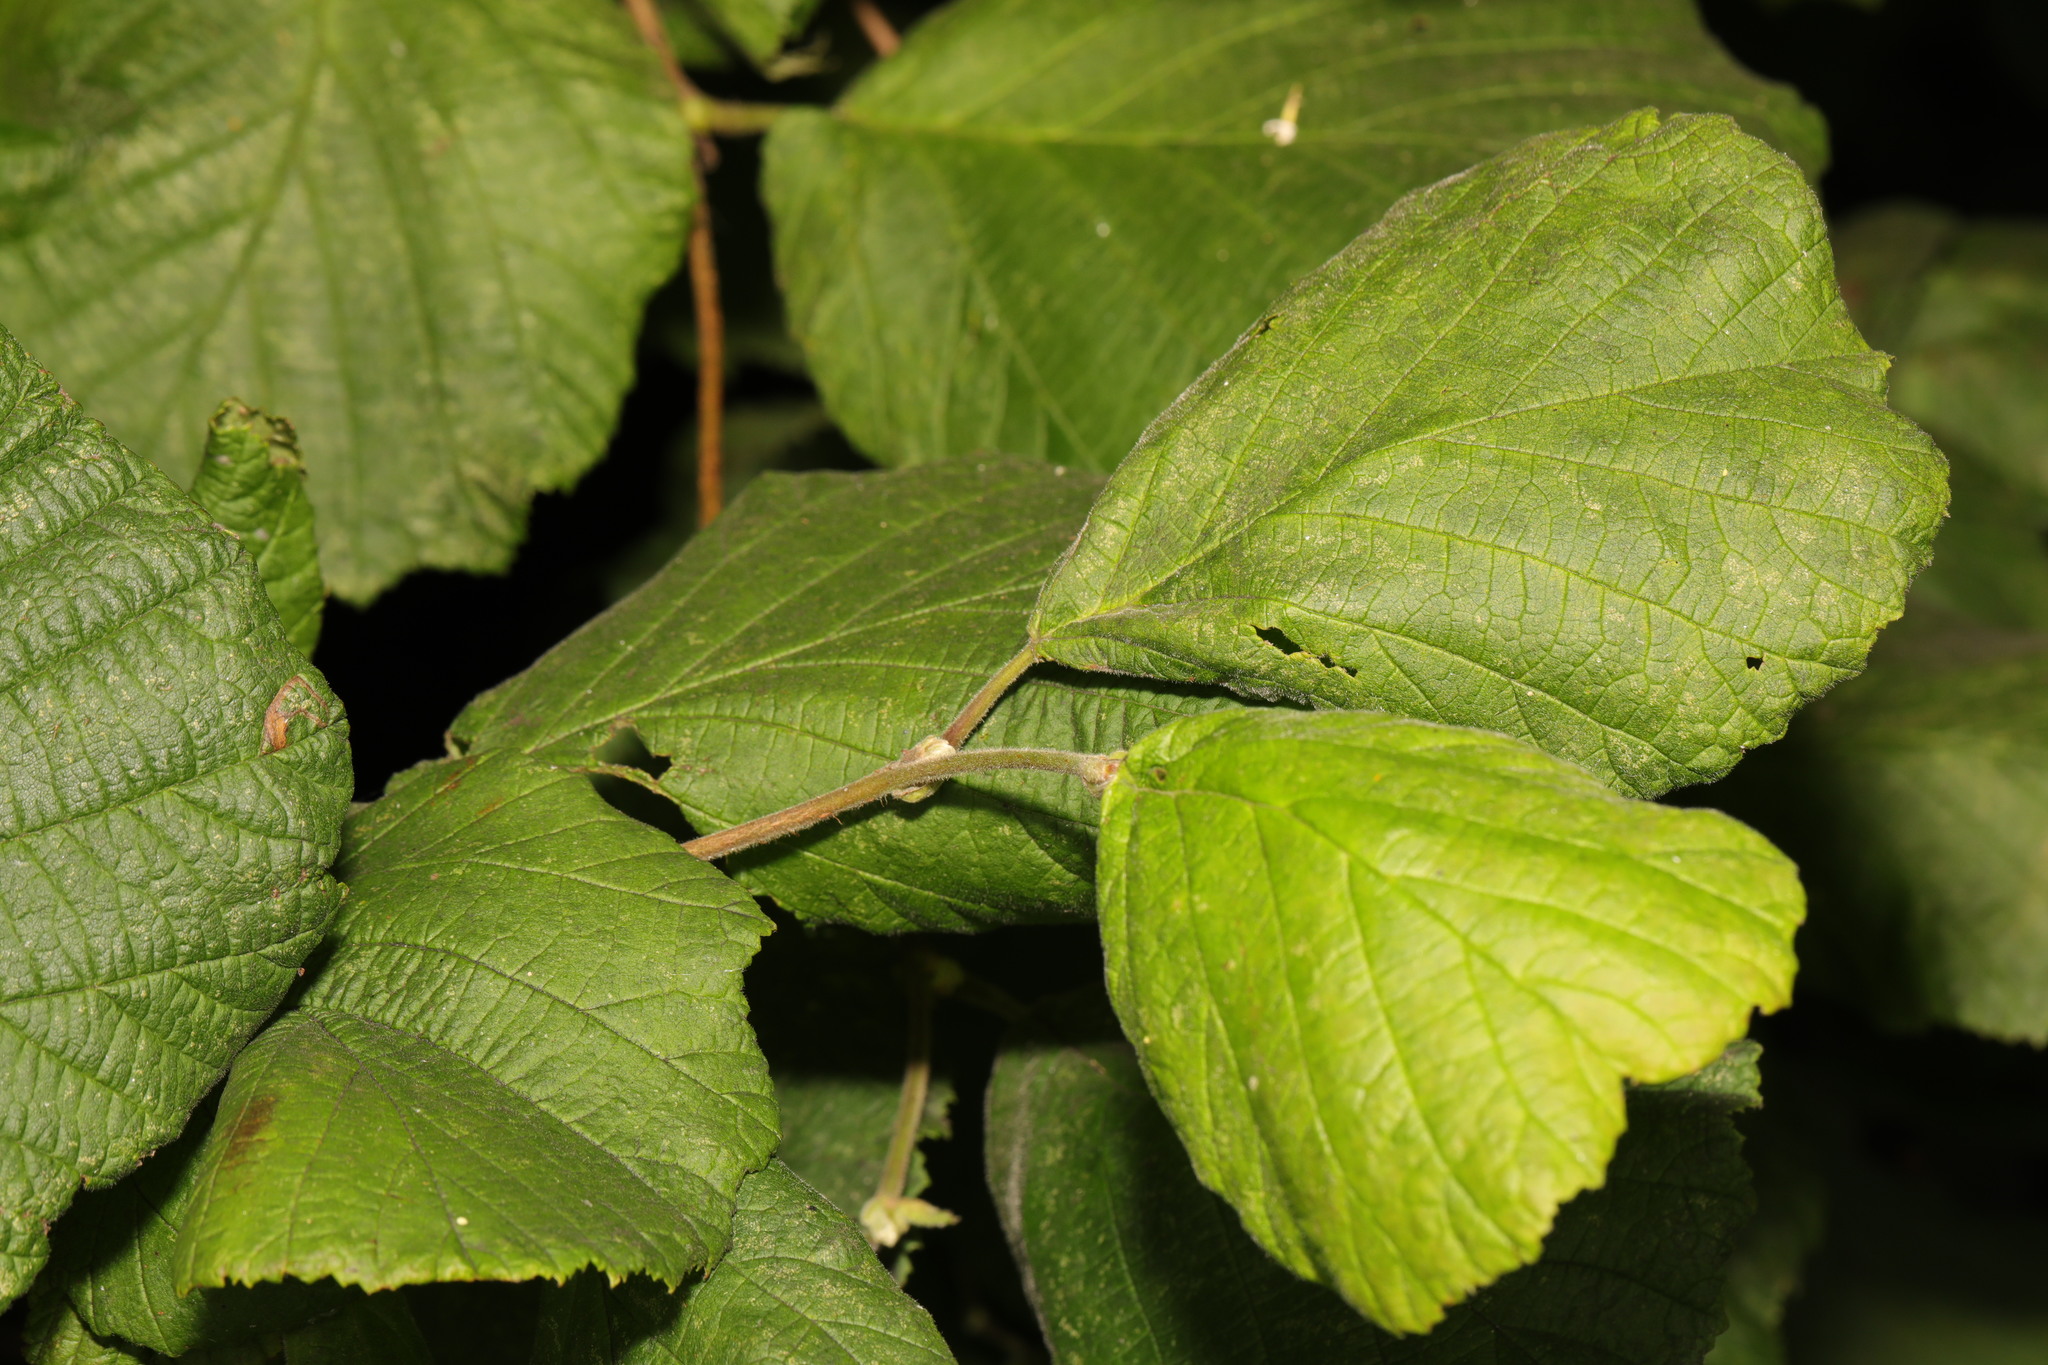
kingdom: Plantae
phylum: Tracheophyta
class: Magnoliopsida
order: Fagales
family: Betulaceae
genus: Corylus
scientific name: Corylus avellana
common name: European hazel
